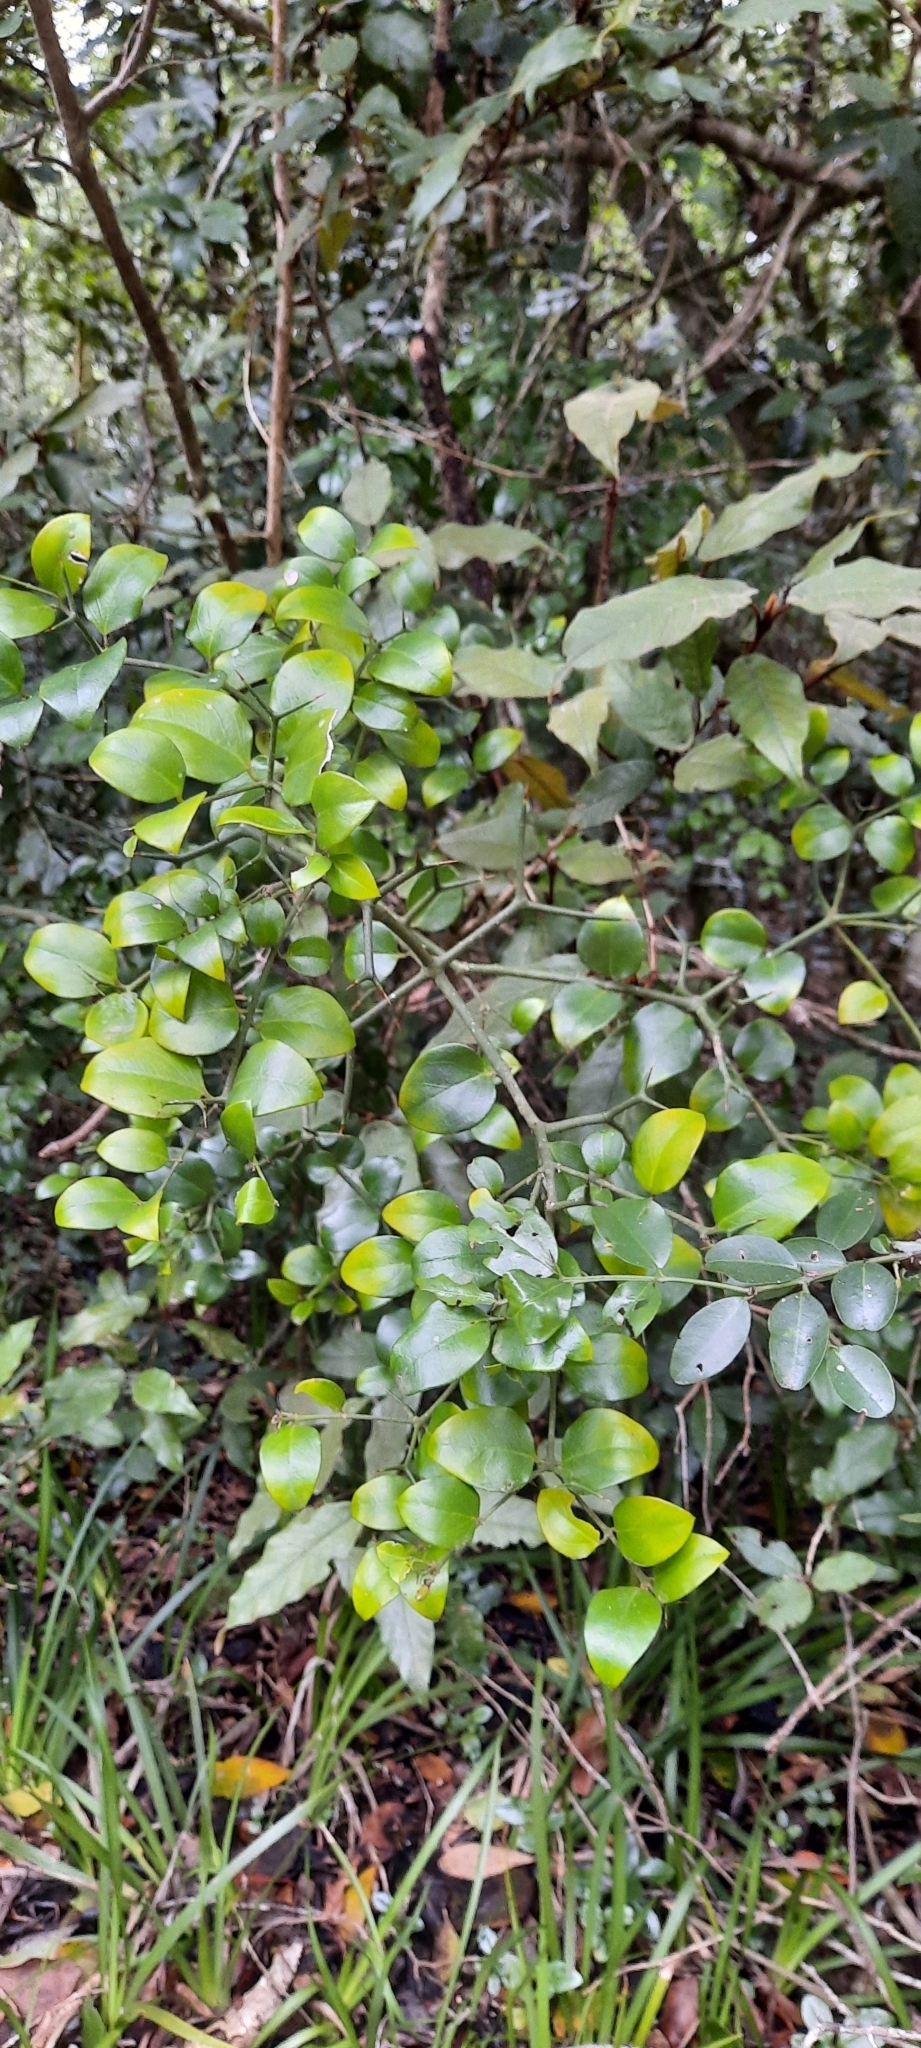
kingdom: Plantae
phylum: Tracheophyta
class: Magnoliopsida
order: Gentianales
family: Apocynaceae
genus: Carissa
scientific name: Carissa bispinosa
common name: Forest num-num
